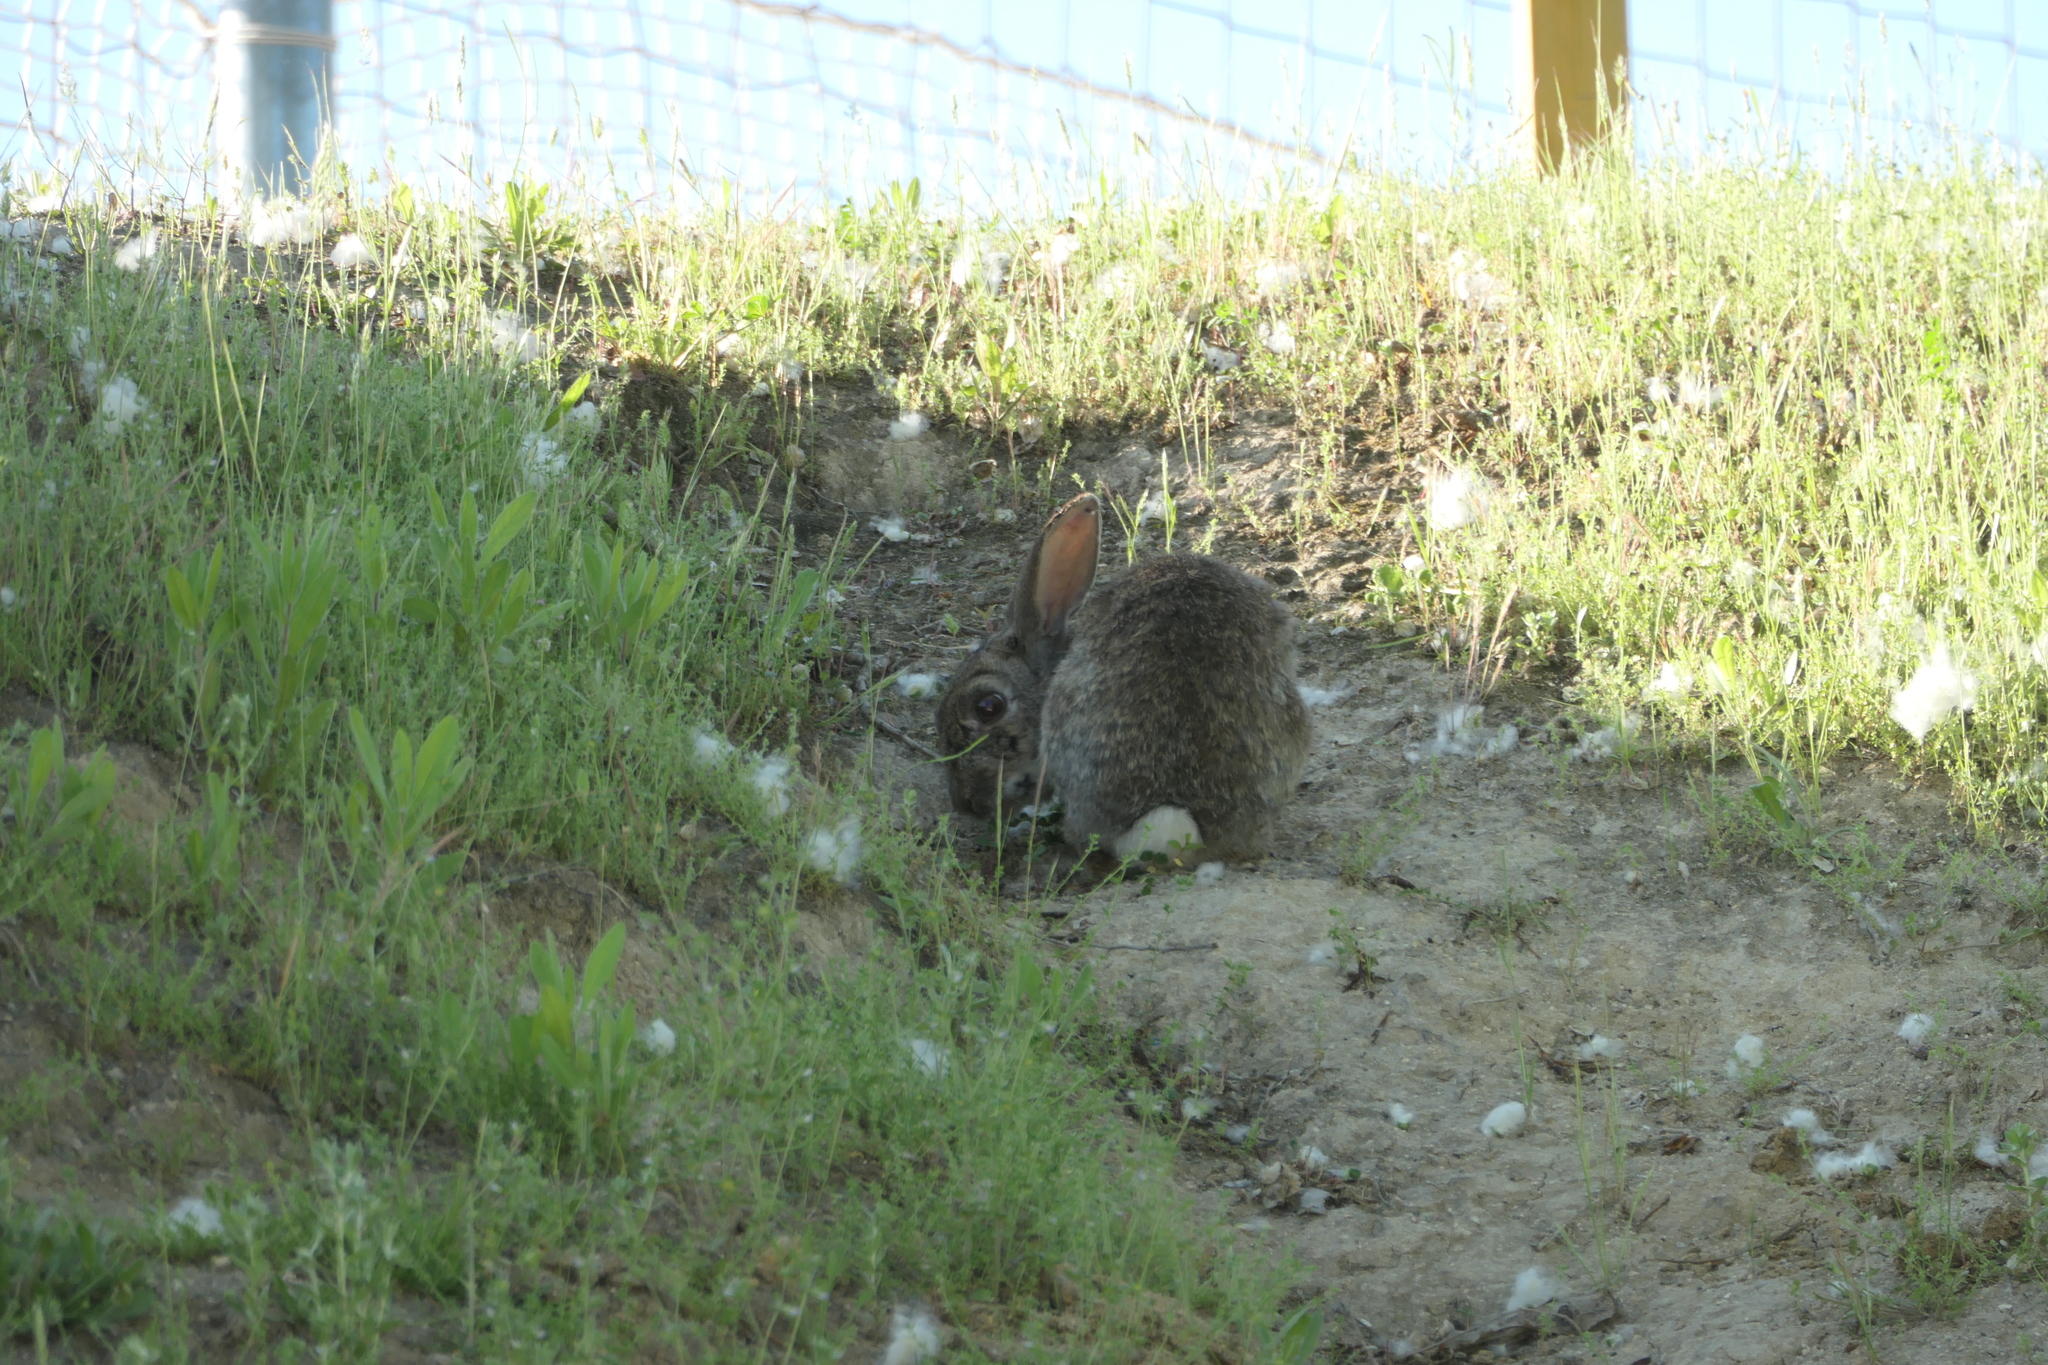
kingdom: Animalia
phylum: Chordata
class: Mammalia
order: Lagomorpha
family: Leporidae
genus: Oryctolagus
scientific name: Oryctolagus cuniculus
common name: European rabbit
